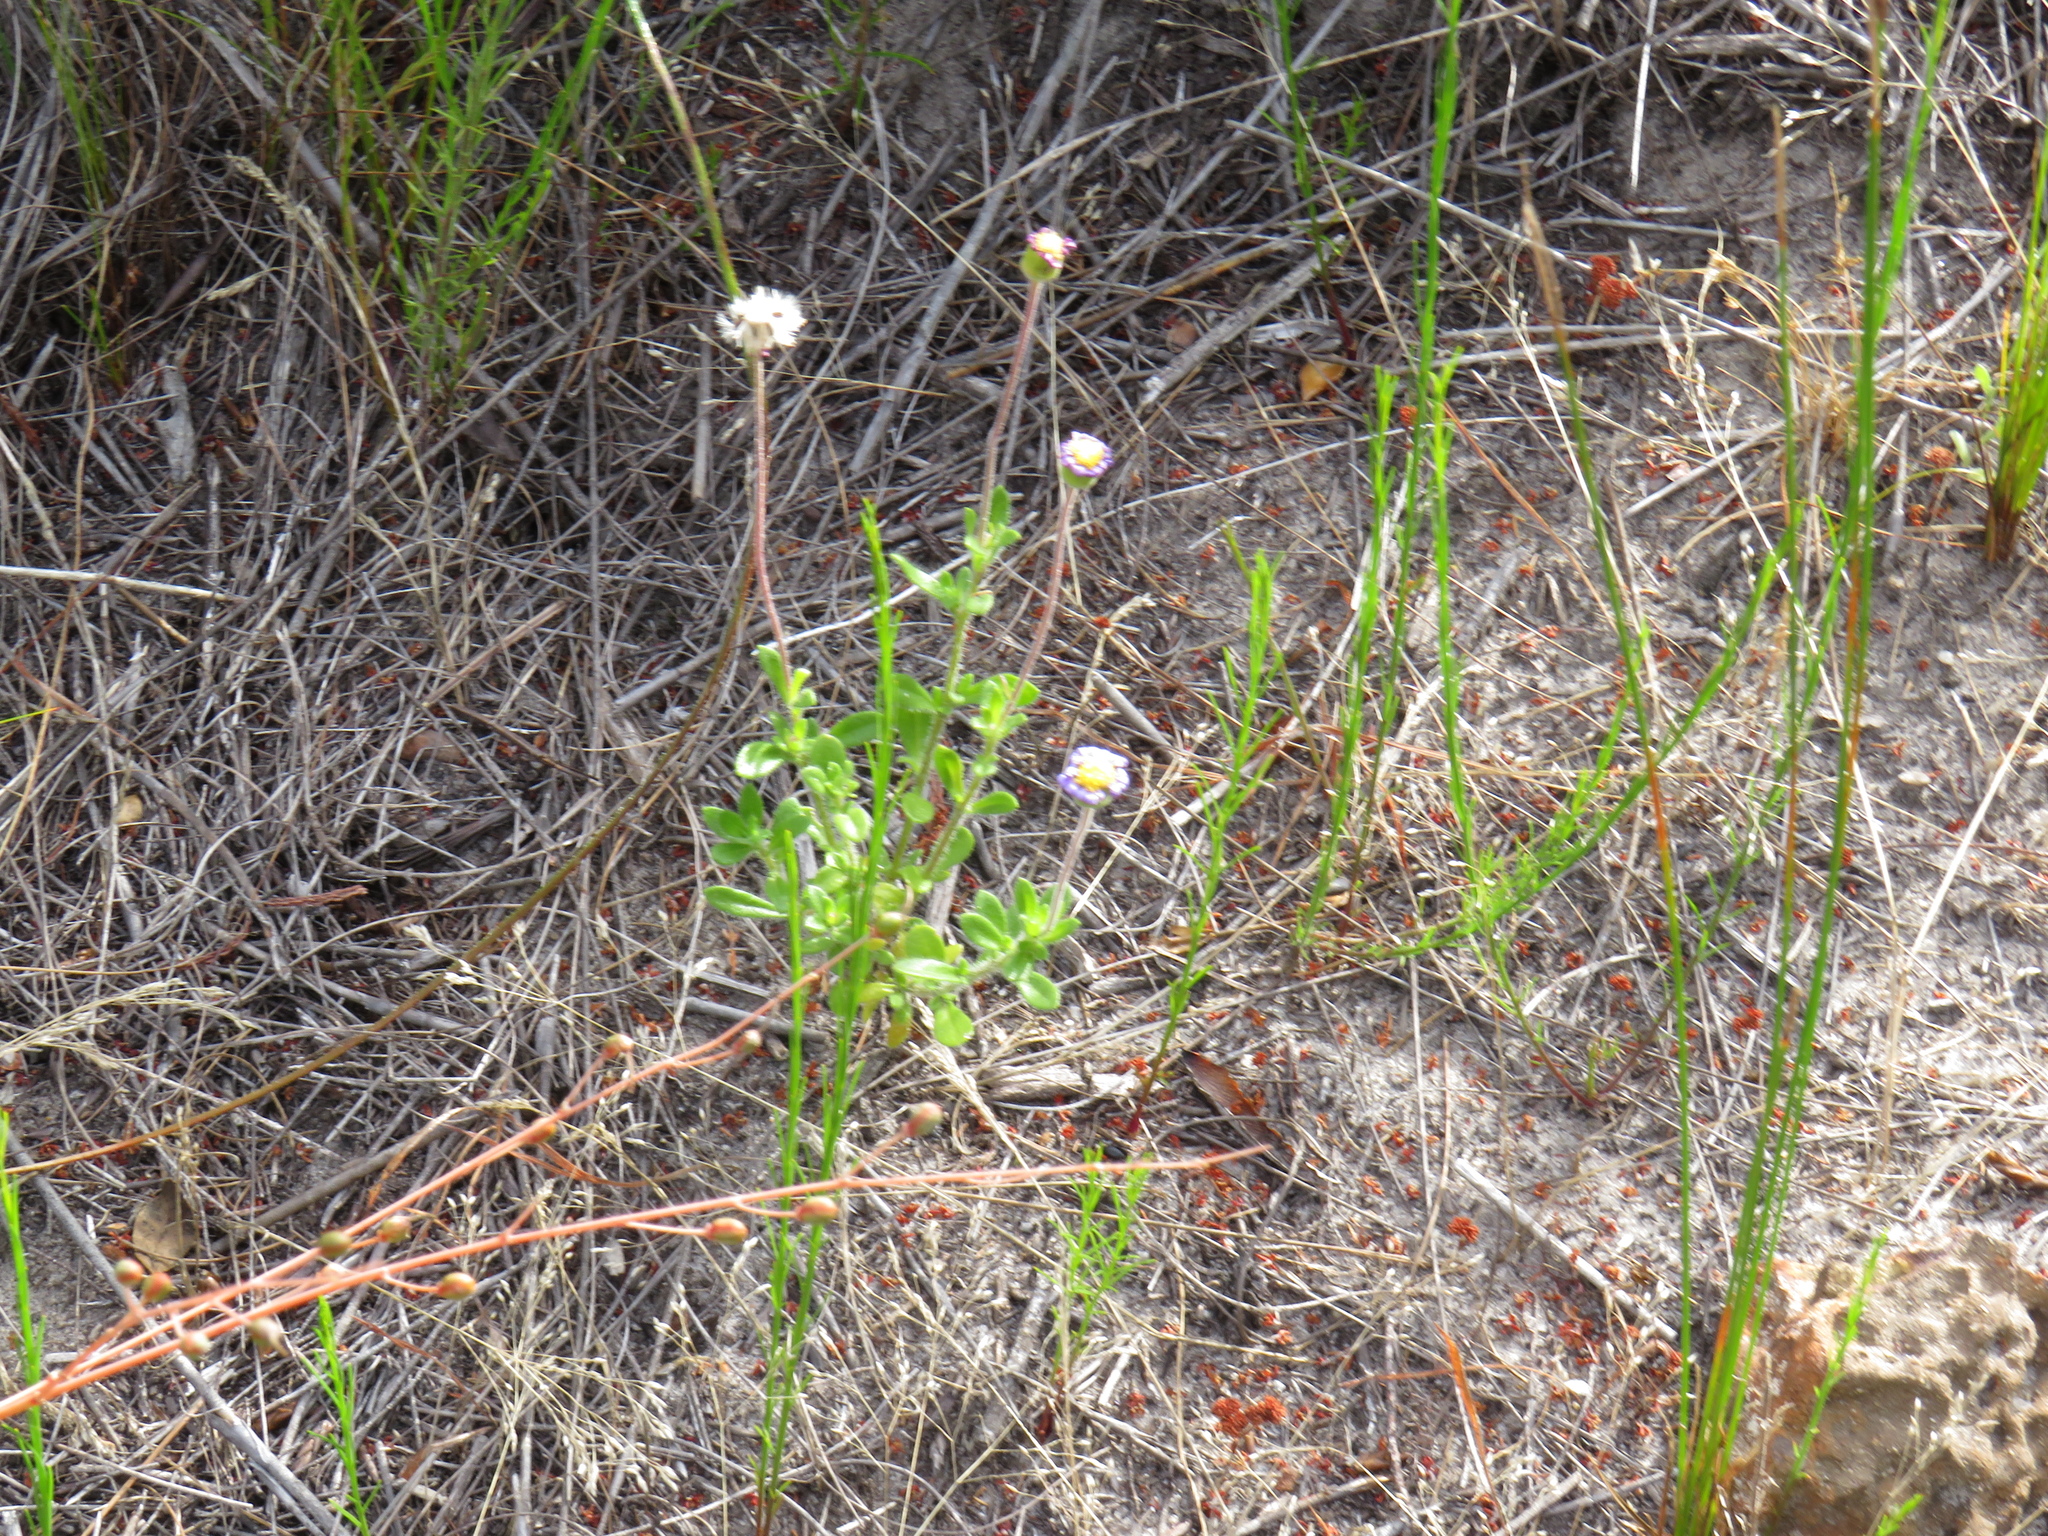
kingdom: Plantae
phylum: Tracheophyta
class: Magnoliopsida
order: Asterales
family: Asteraceae
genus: Felicia
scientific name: Felicia amoena
